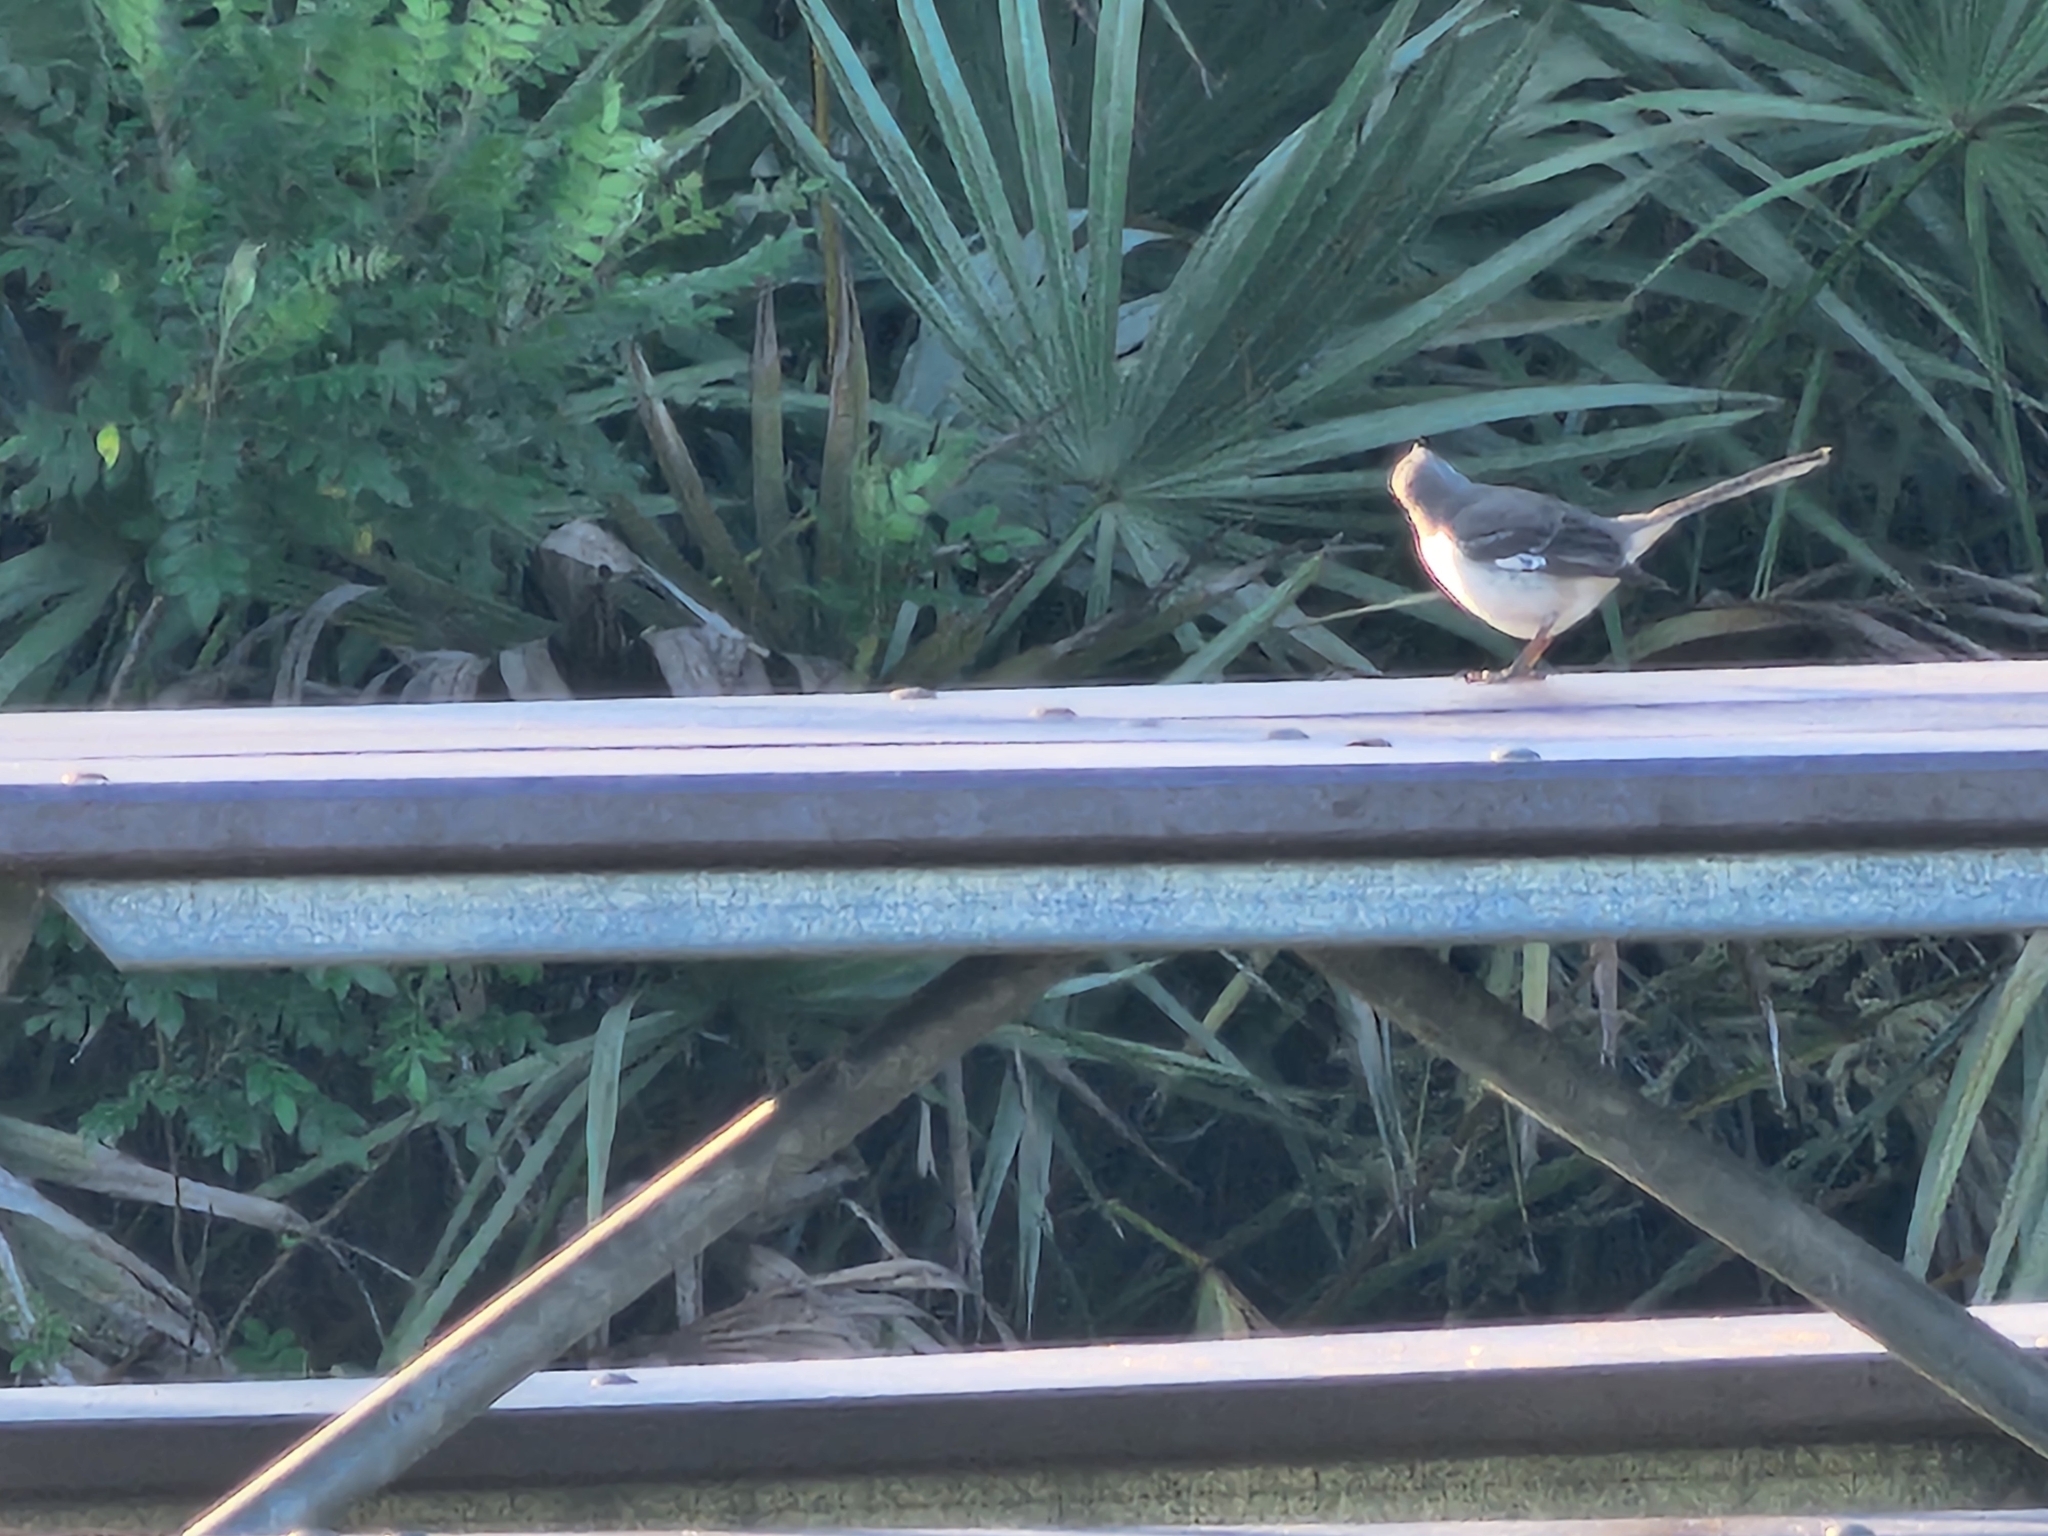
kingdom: Animalia
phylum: Chordata
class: Aves
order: Passeriformes
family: Mimidae
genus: Mimus
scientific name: Mimus polyglottos
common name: Northern mockingbird
